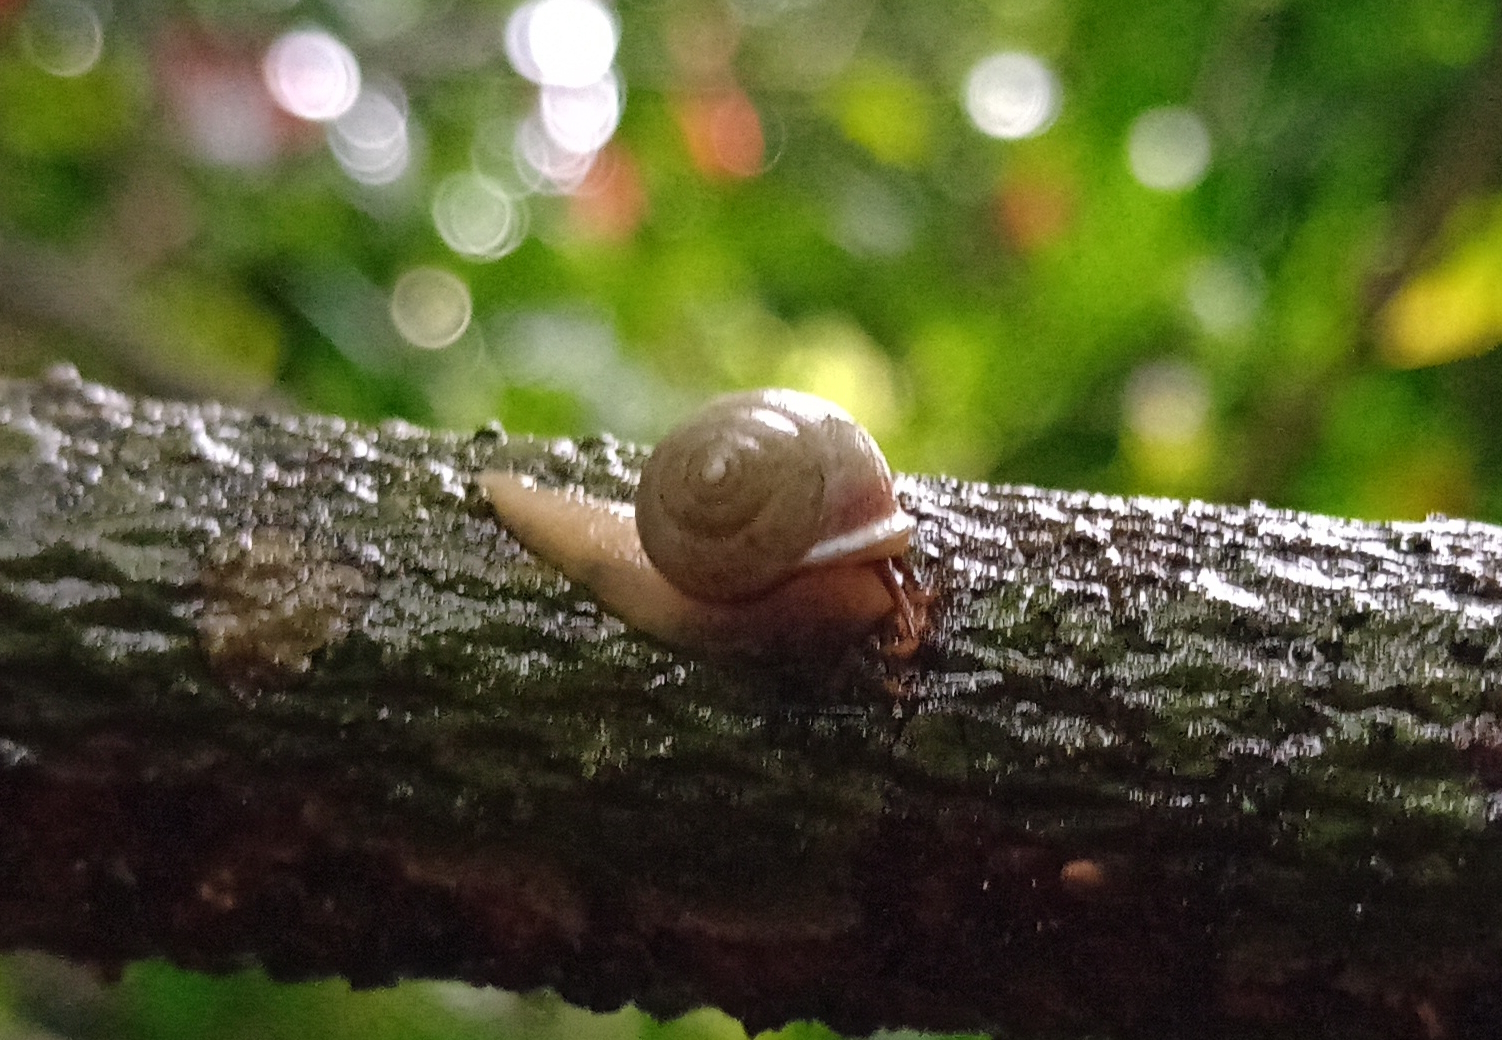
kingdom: Animalia
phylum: Mollusca
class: Gastropoda
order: Cycloneritida
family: Helicinidae
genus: Helicina
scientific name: Helicina boettgeri
